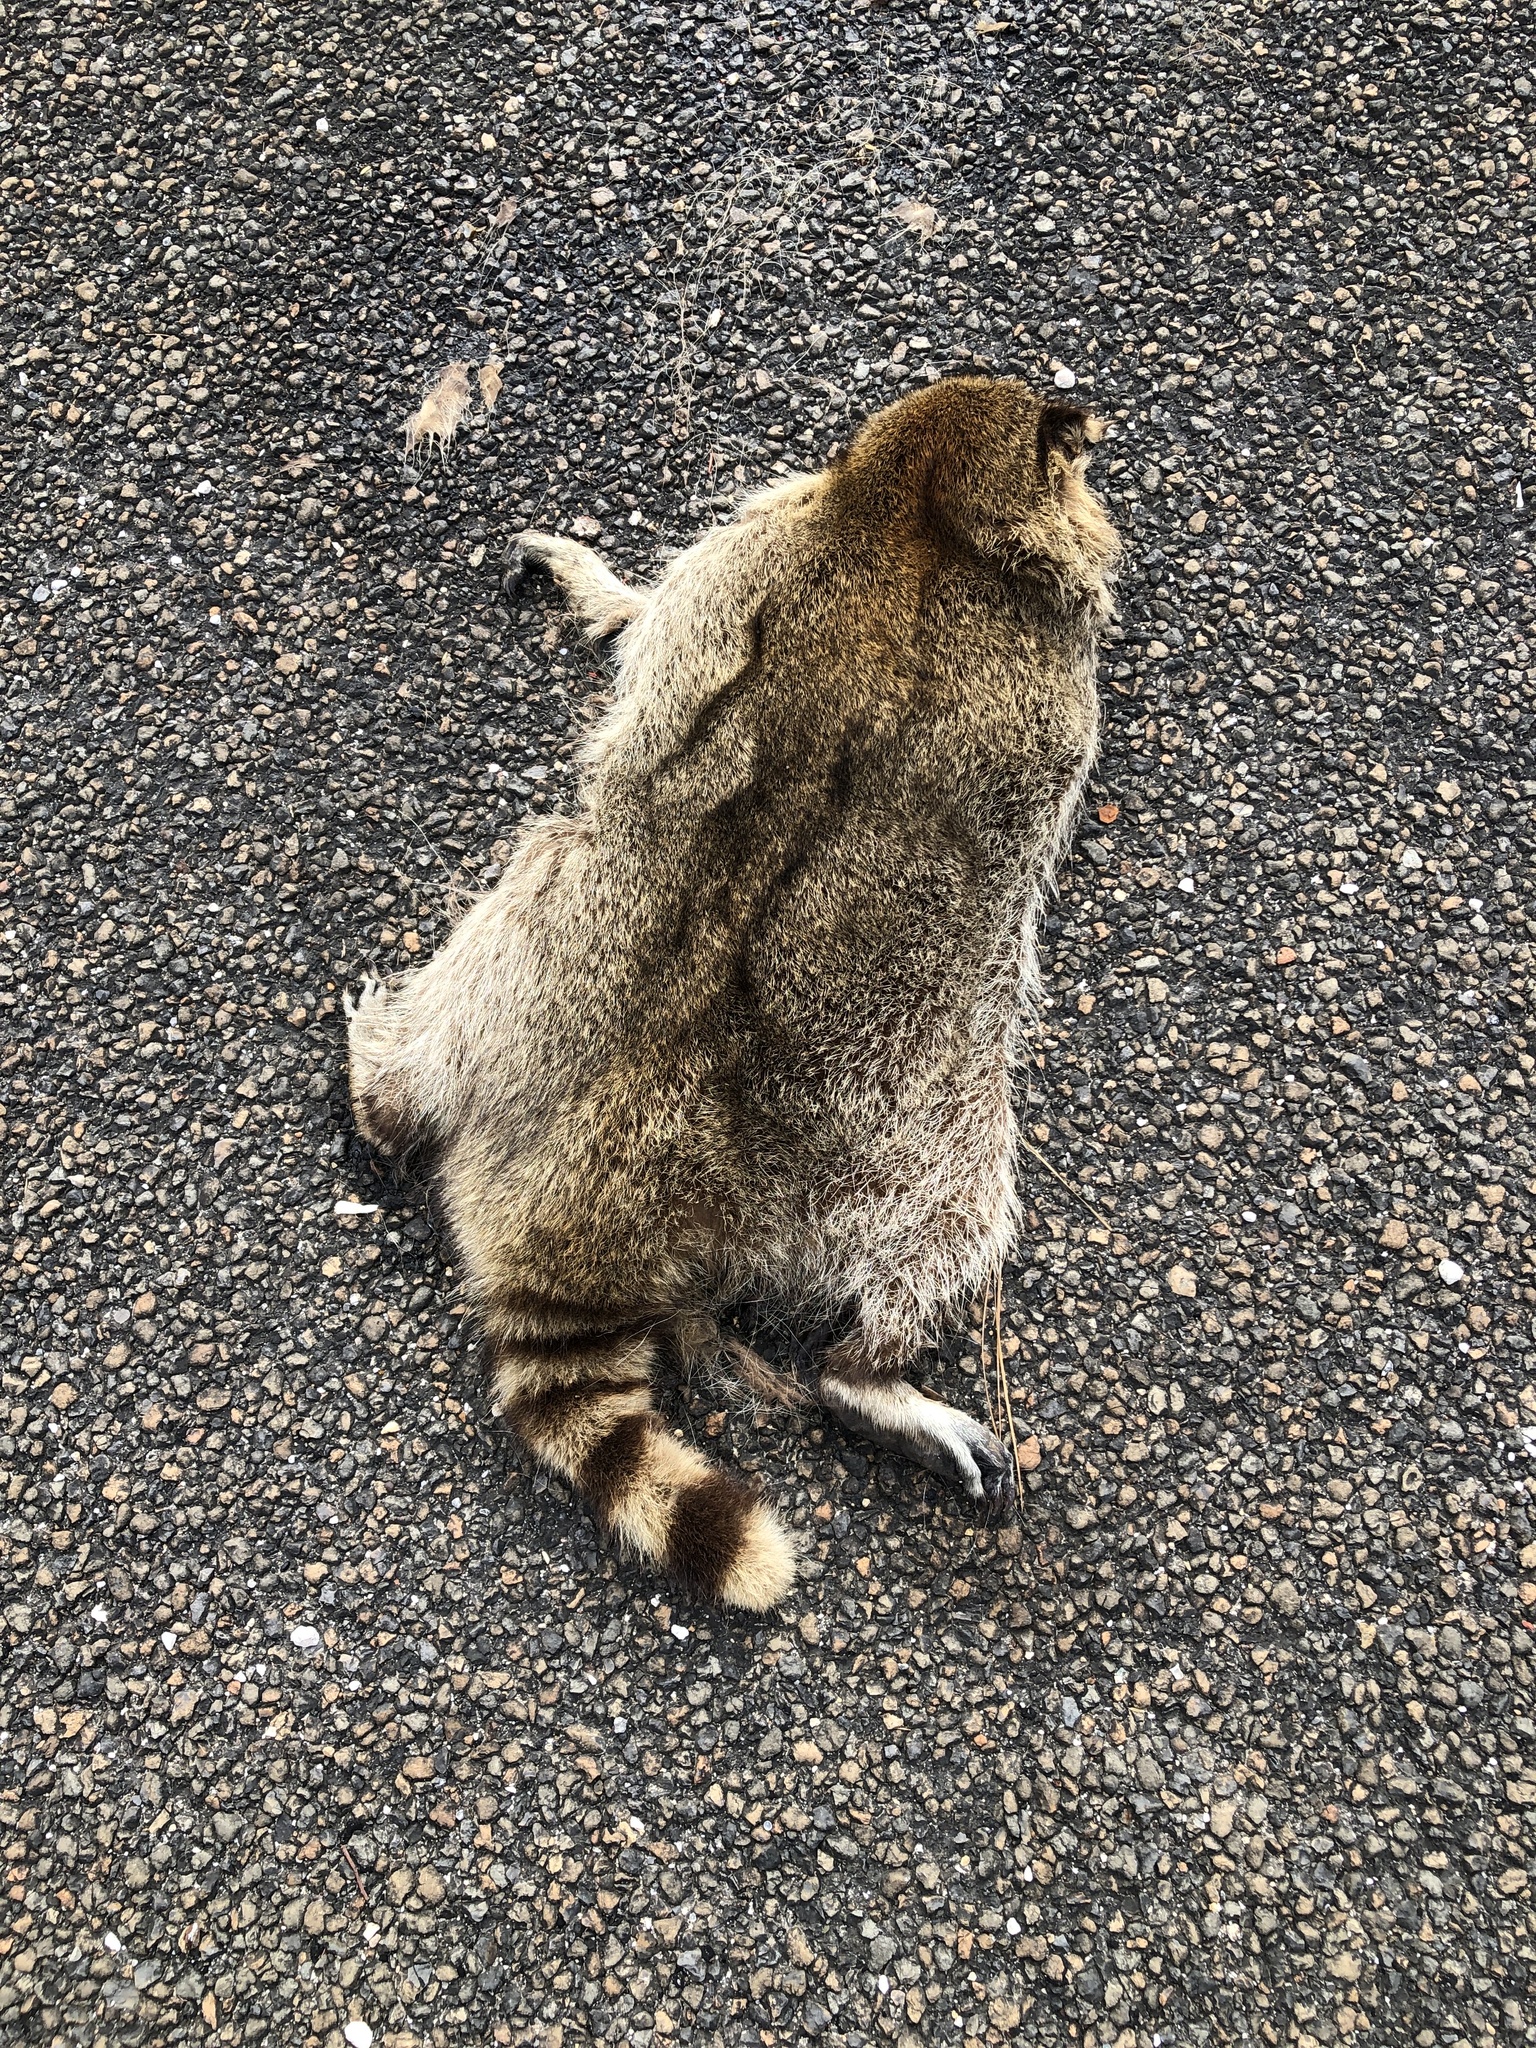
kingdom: Animalia
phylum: Chordata
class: Mammalia
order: Carnivora
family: Procyonidae
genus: Procyon
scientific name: Procyon lotor
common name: Raccoon
